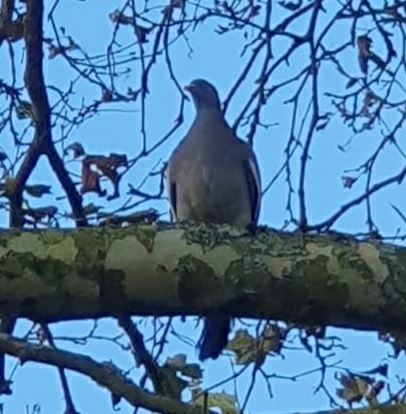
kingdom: Animalia
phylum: Chordata
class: Aves
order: Columbiformes
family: Columbidae
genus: Columba
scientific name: Columba palumbus
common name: Common wood pigeon
